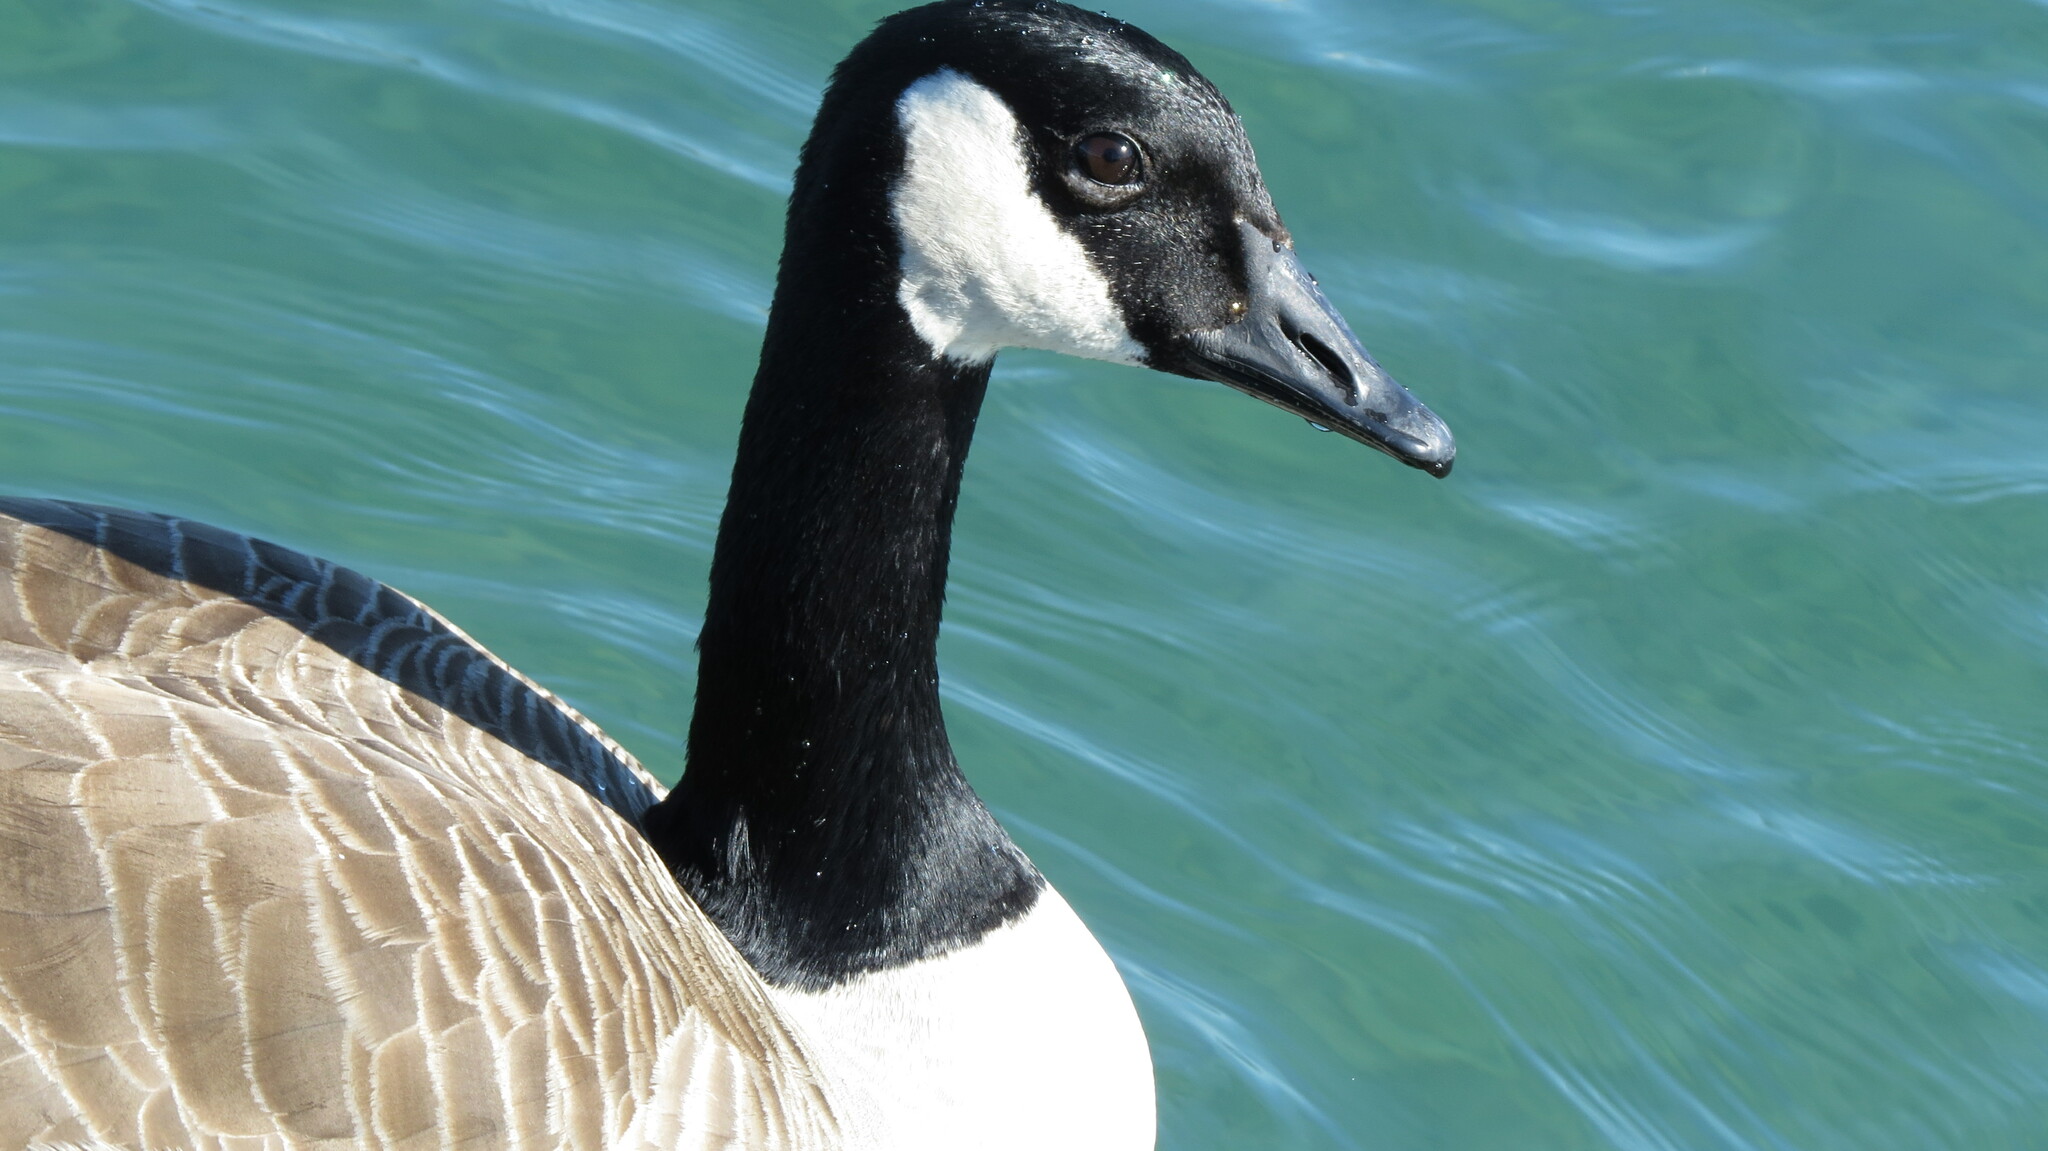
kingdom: Animalia
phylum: Chordata
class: Aves
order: Anseriformes
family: Anatidae
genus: Branta
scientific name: Branta canadensis
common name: Canada goose
